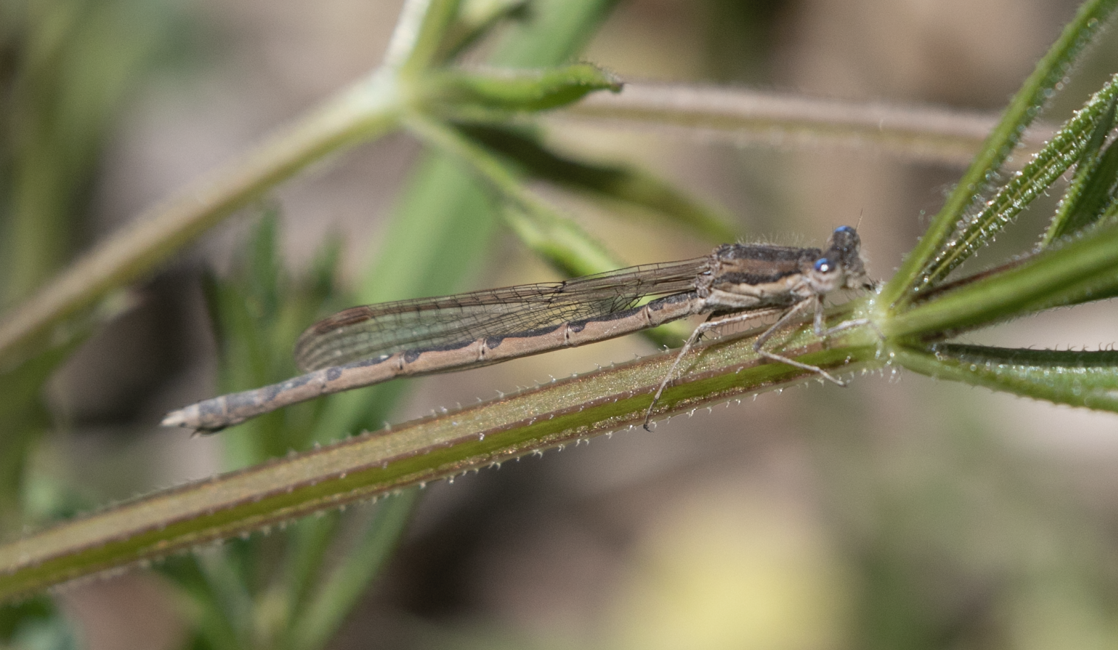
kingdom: Animalia
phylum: Arthropoda
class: Insecta
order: Odonata
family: Lestidae
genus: Sympecma
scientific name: Sympecma fusca
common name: Common winter damsel
